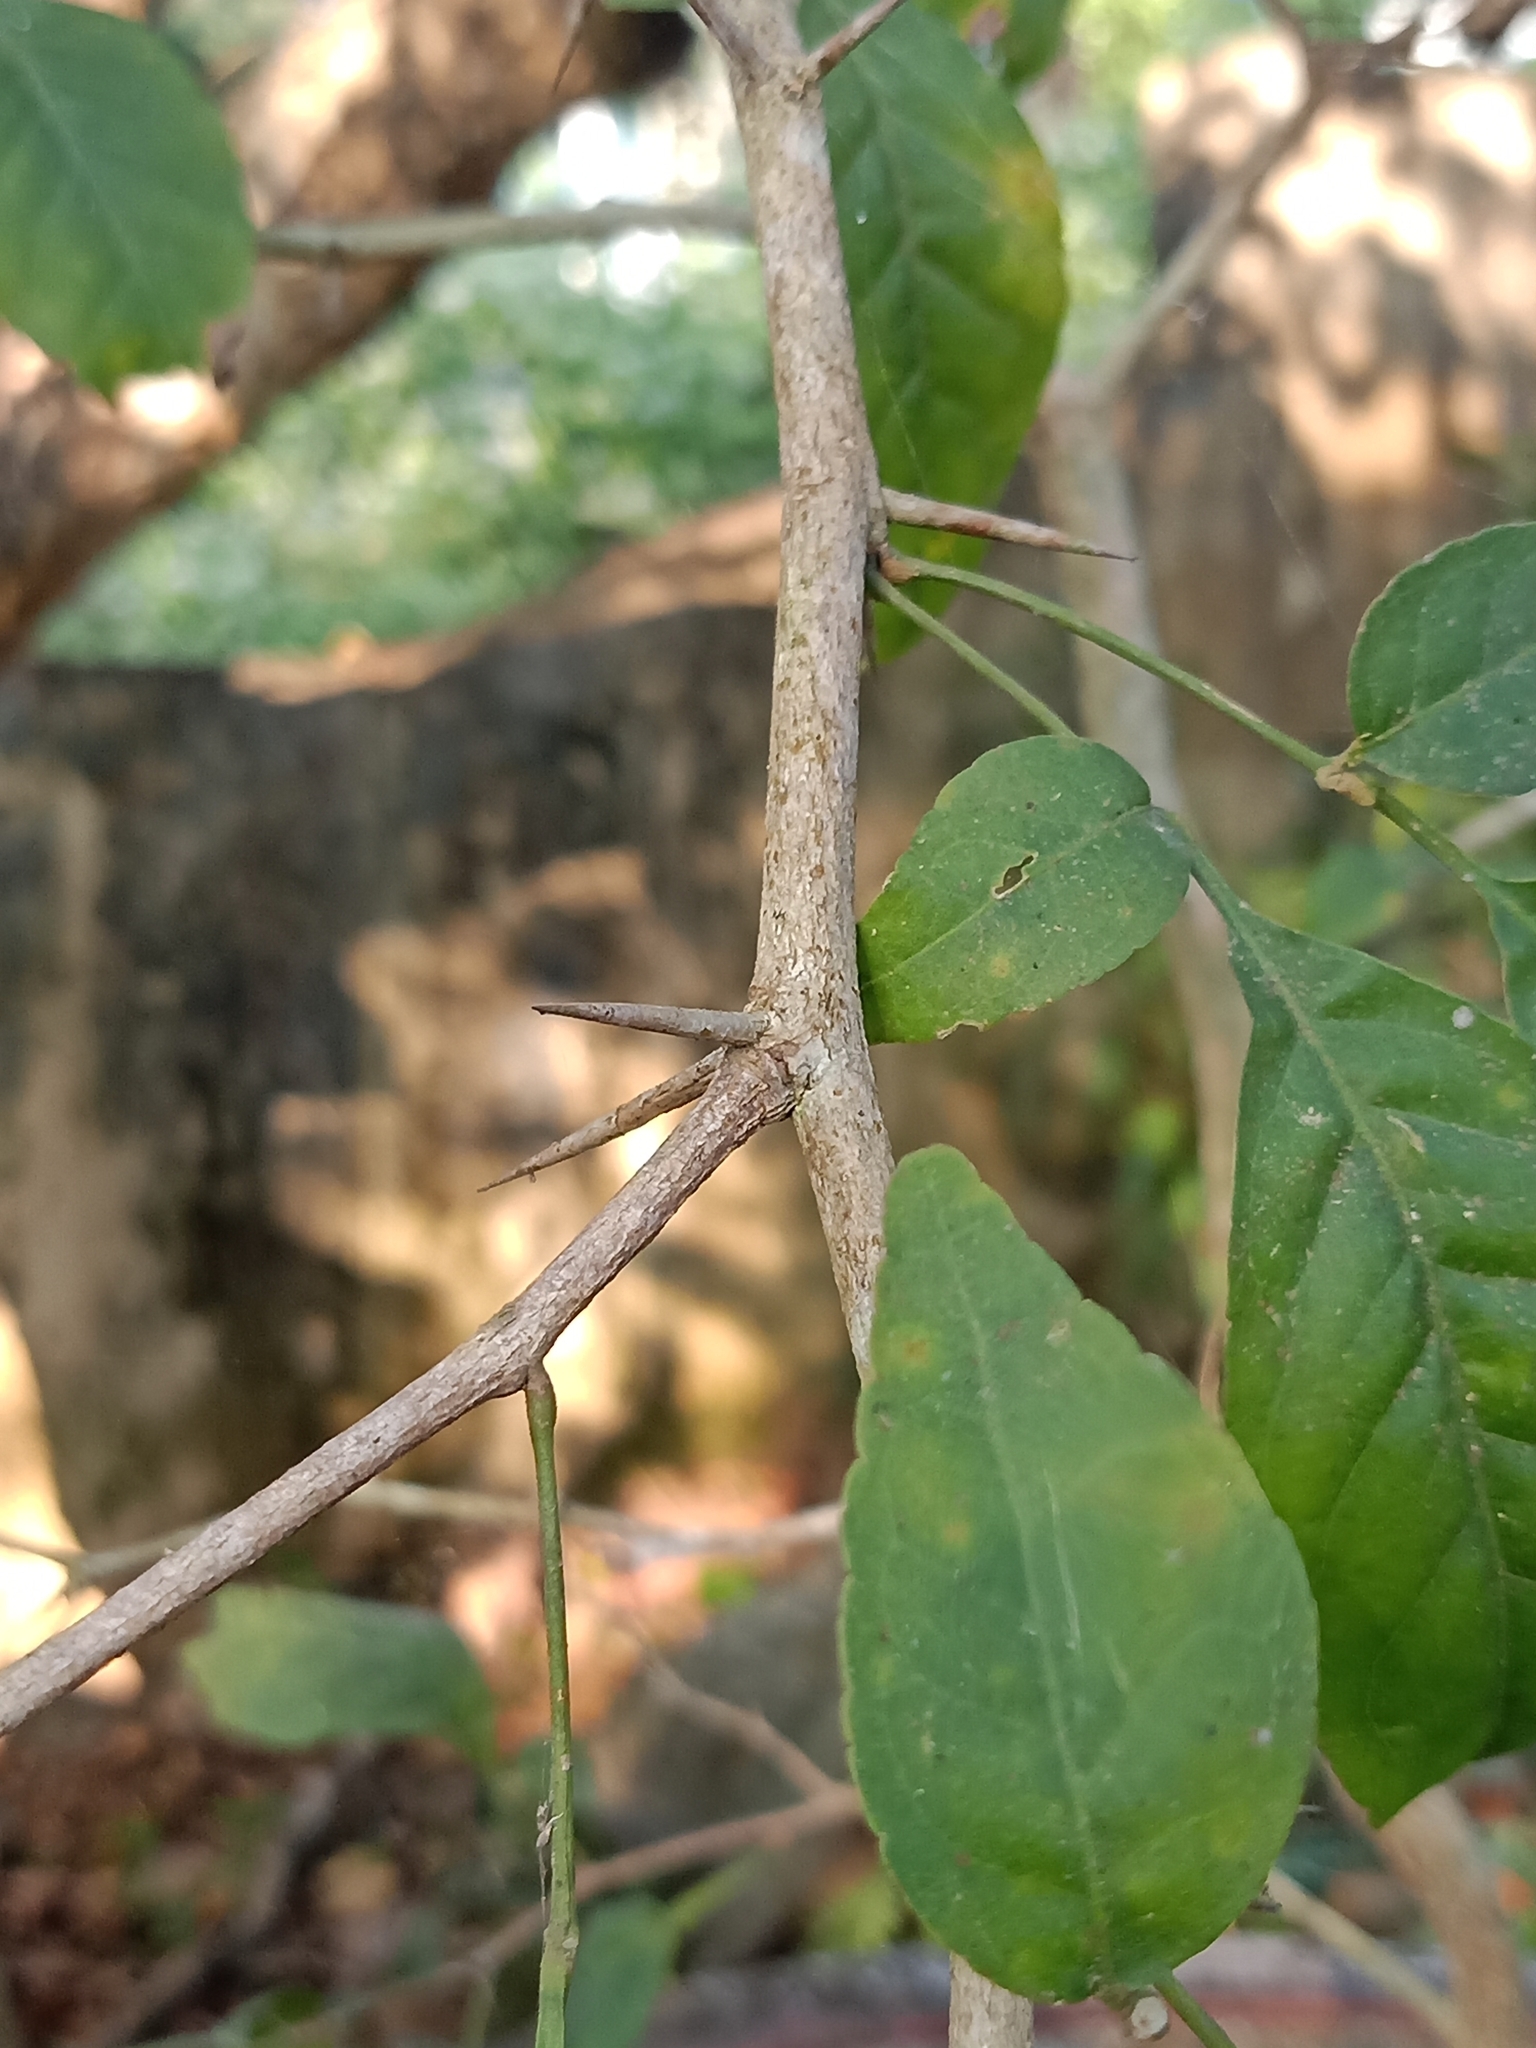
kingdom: Plantae
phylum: Tracheophyta
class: Magnoliopsida
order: Sapindales
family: Rutaceae
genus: Aegle
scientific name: Aegle marmelos
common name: Bael
